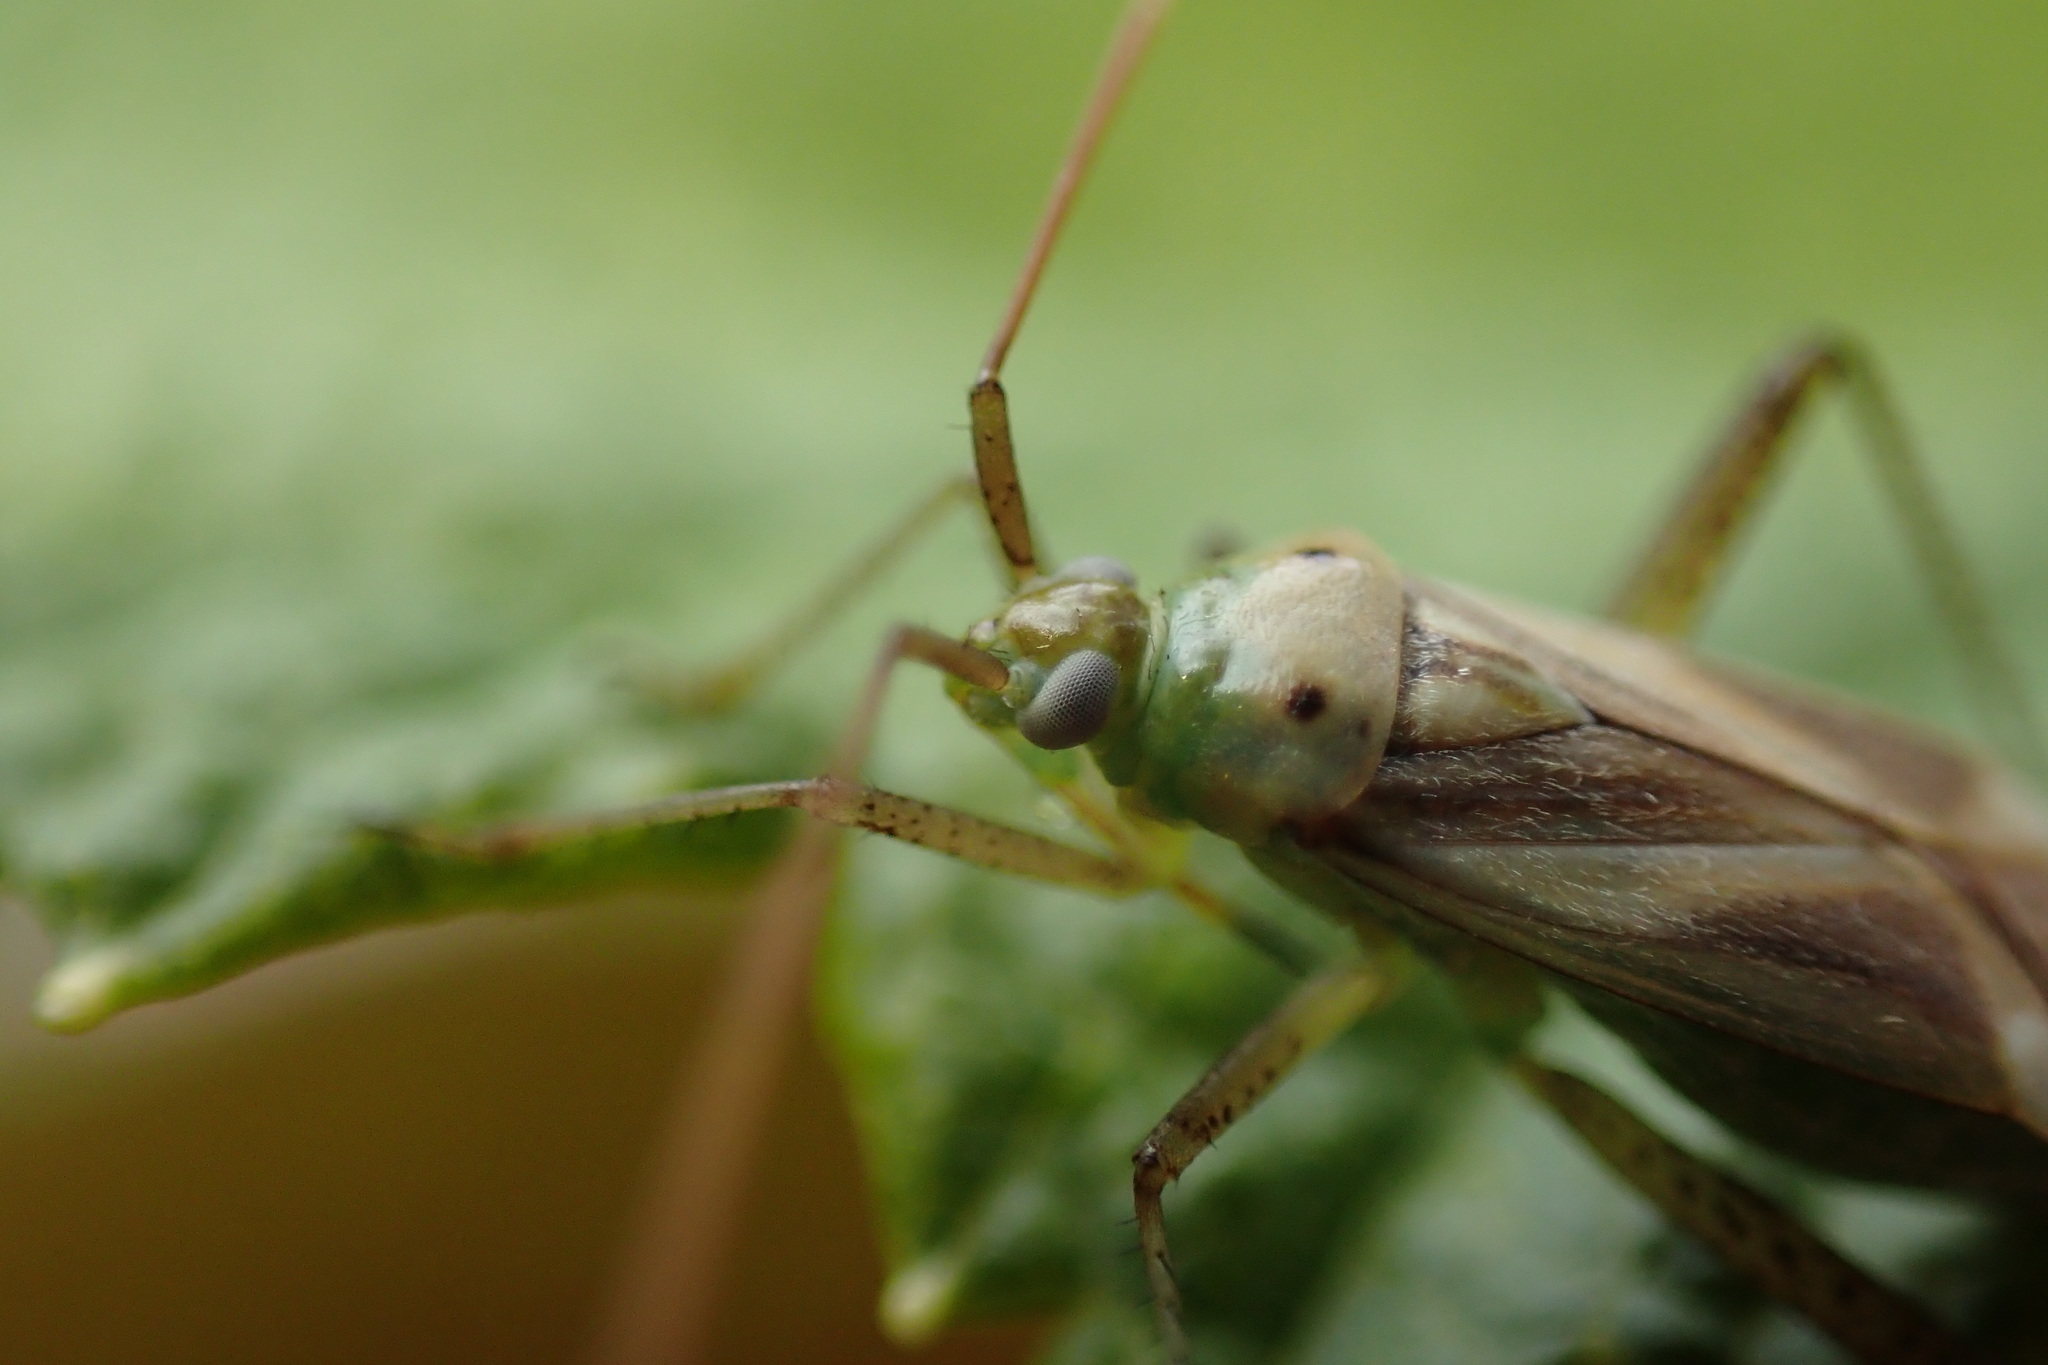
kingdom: Animalia
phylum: Arthropoda
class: Insecta
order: Hemiptera
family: Miridae
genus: Adelphocoris
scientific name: Adelphocoris lineolatus
